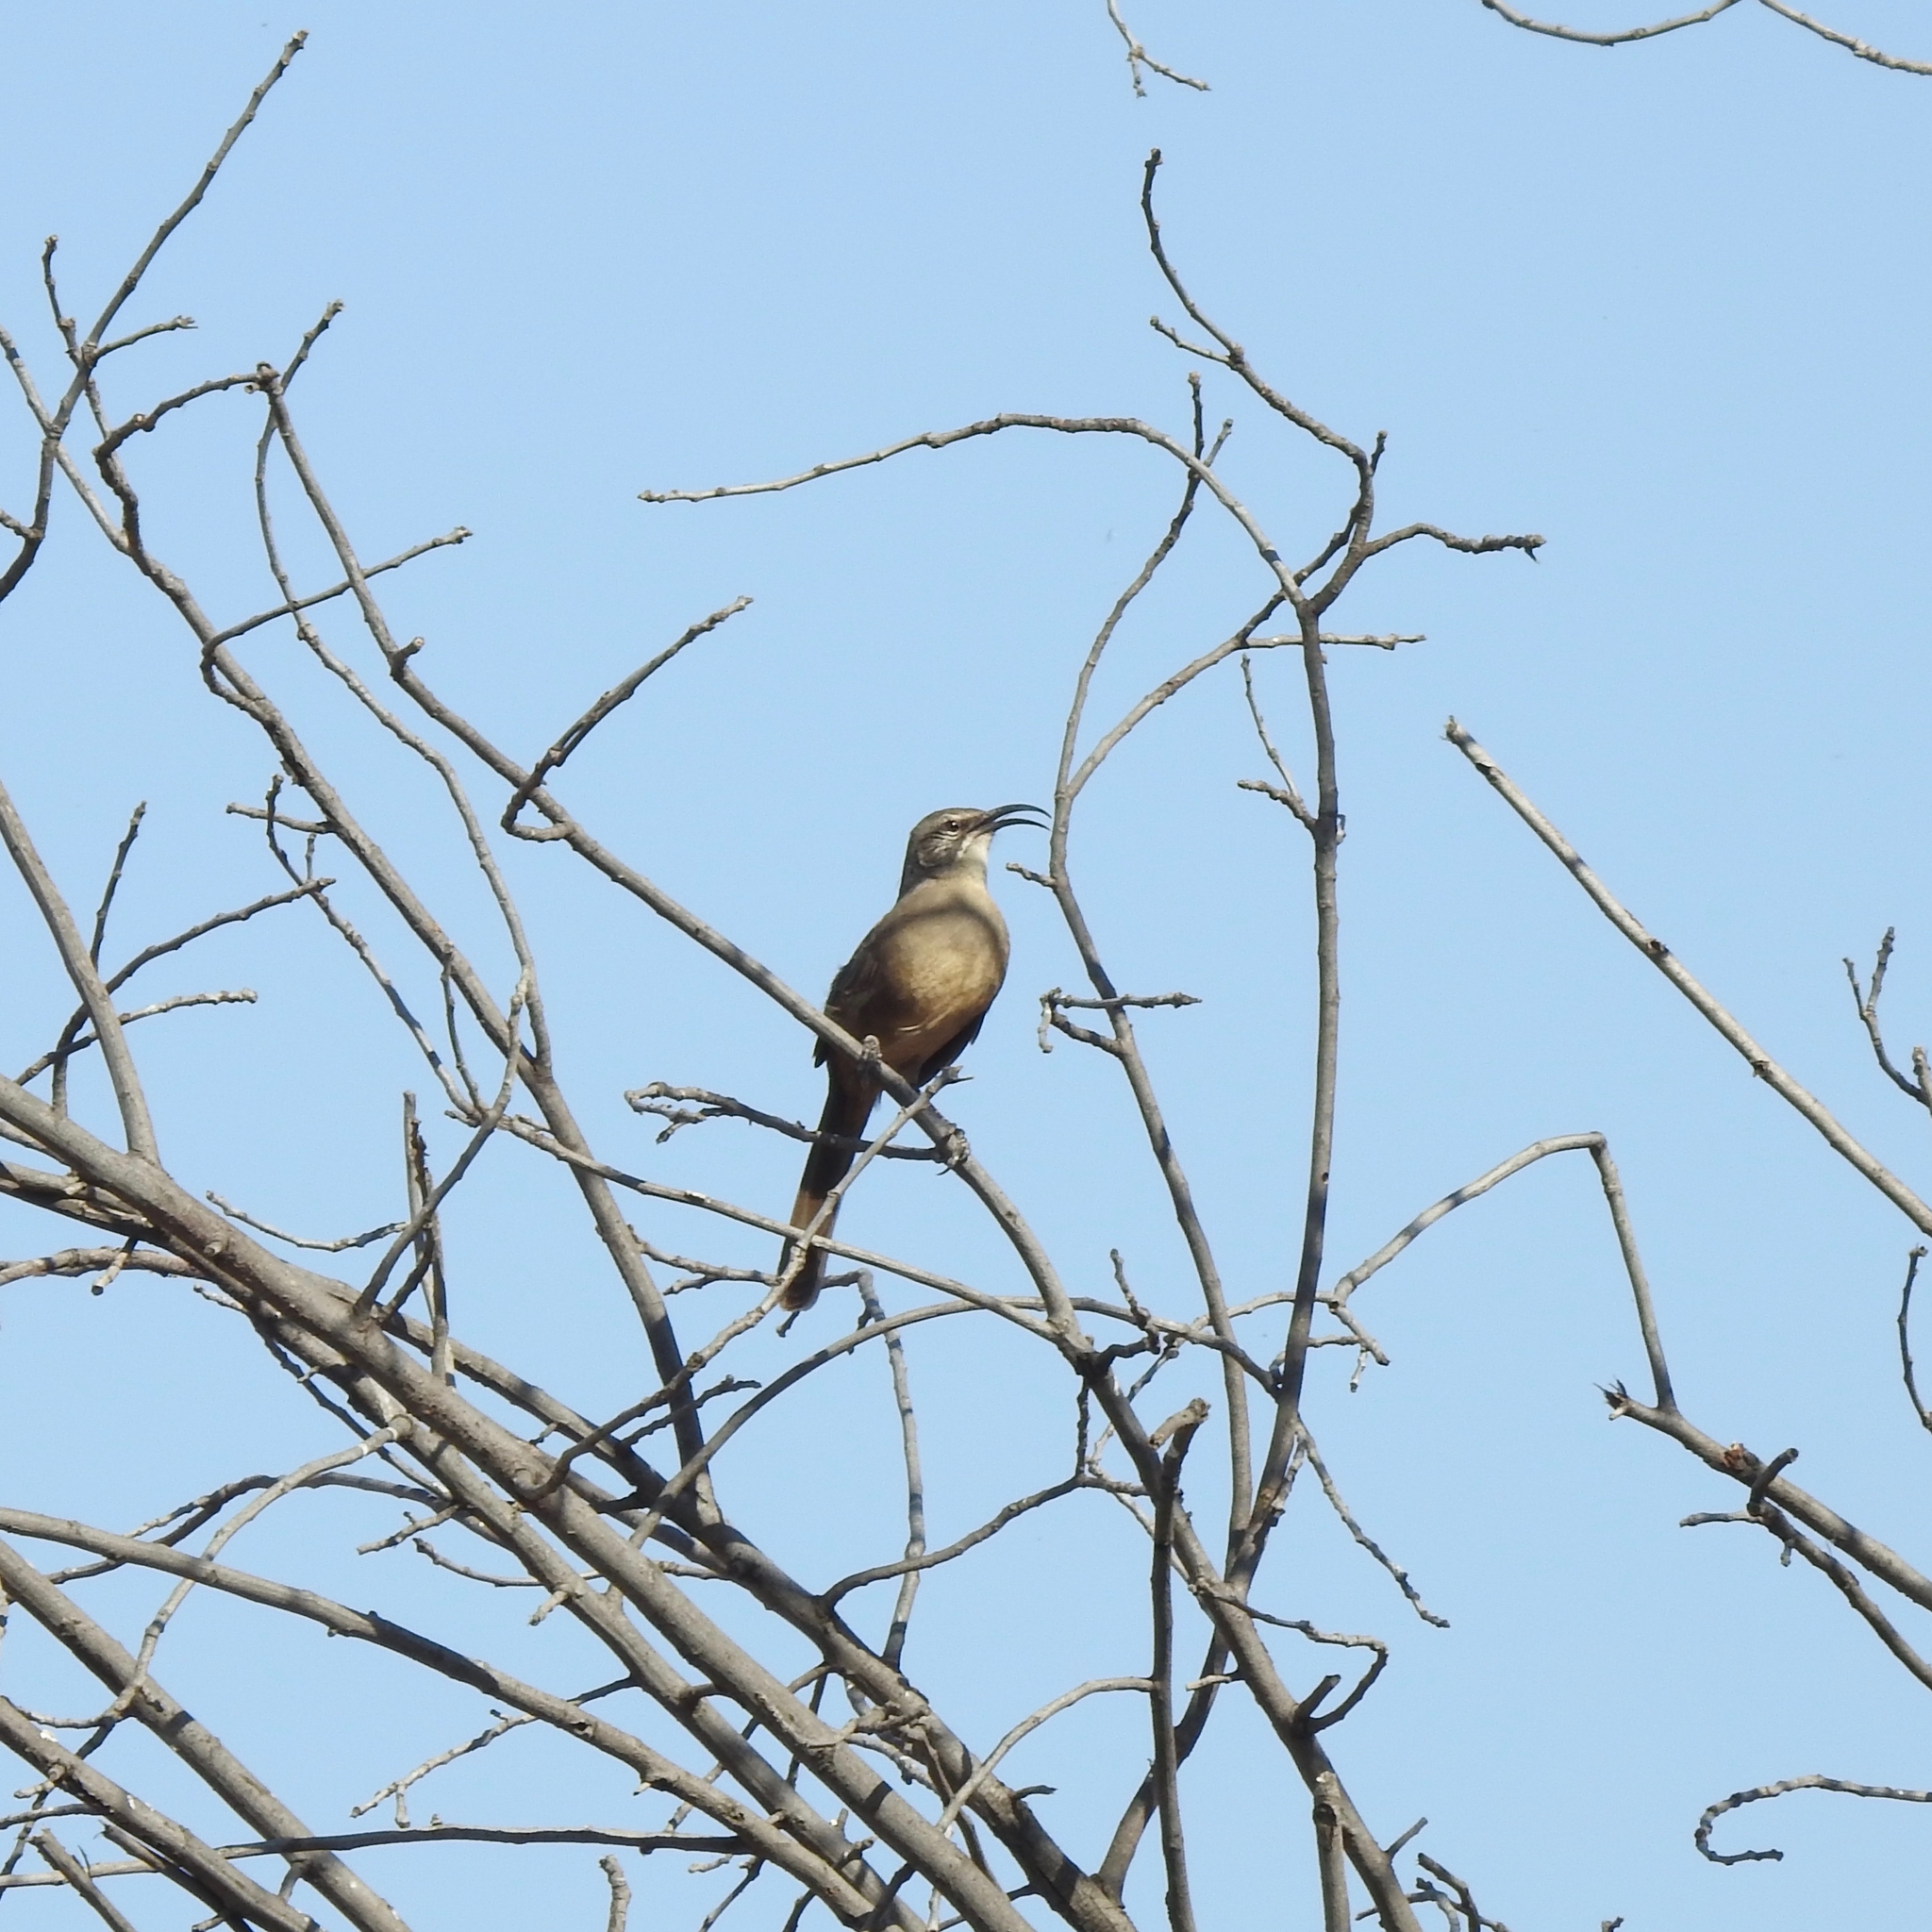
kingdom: Animalia
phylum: Chordata
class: Aves
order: Passeriformes
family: Mimidae
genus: Toxostoma
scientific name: Toxostoma redivivum
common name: California thrasher
